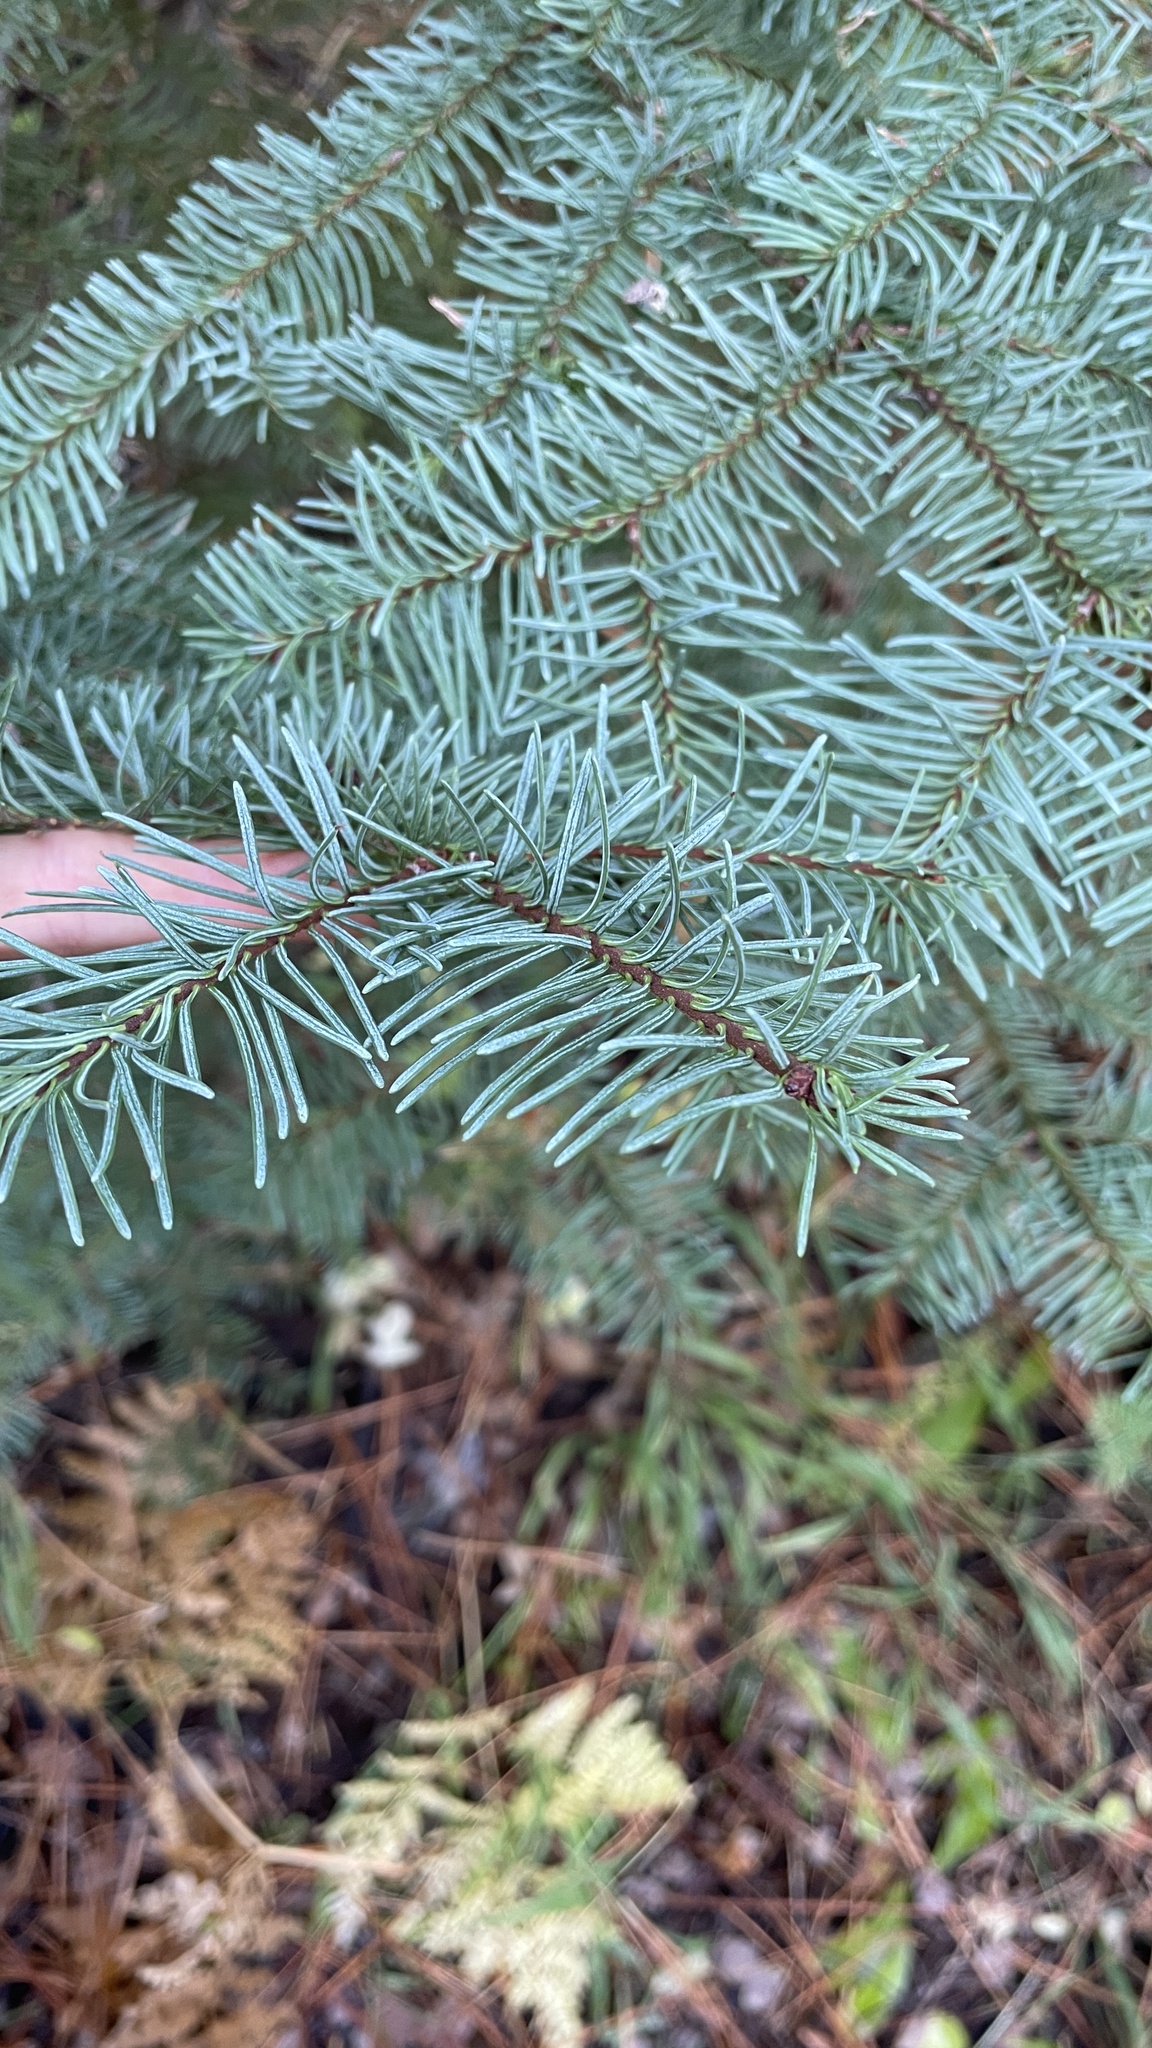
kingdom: Plantae
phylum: Tracheophyta
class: Pinopsida
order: Pinales
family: Pinaceae
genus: Abies
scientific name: Abies magnifica bis
